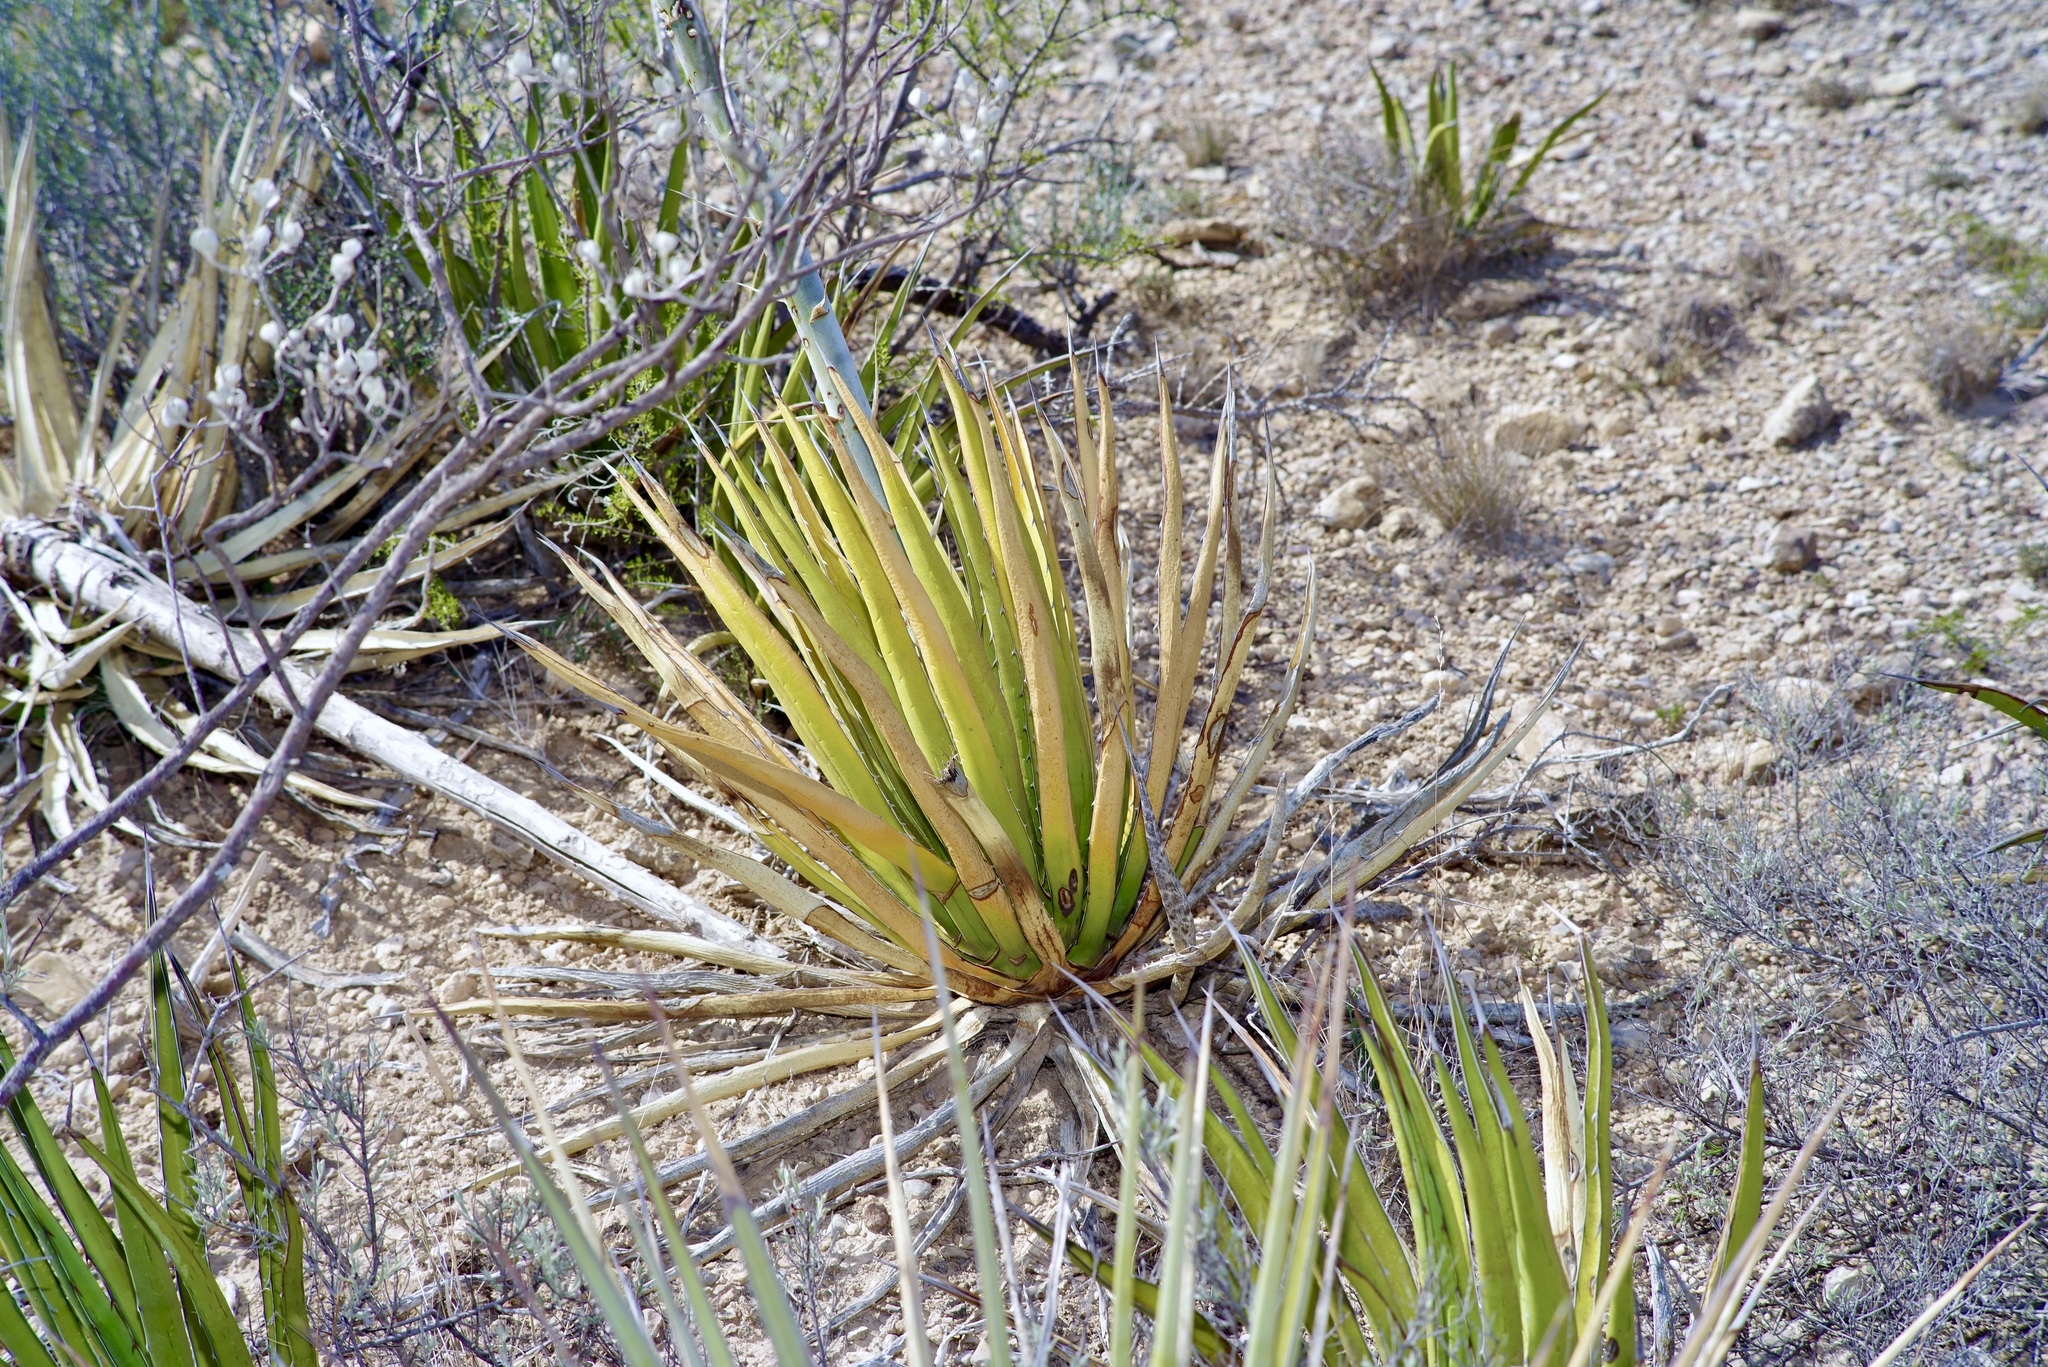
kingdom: Plantae
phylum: Tracheophyta
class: Liliopsida
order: Asparagales
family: Asparagaceae
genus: Agave
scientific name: Agave lechuguilla
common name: Lecheguilla agave
